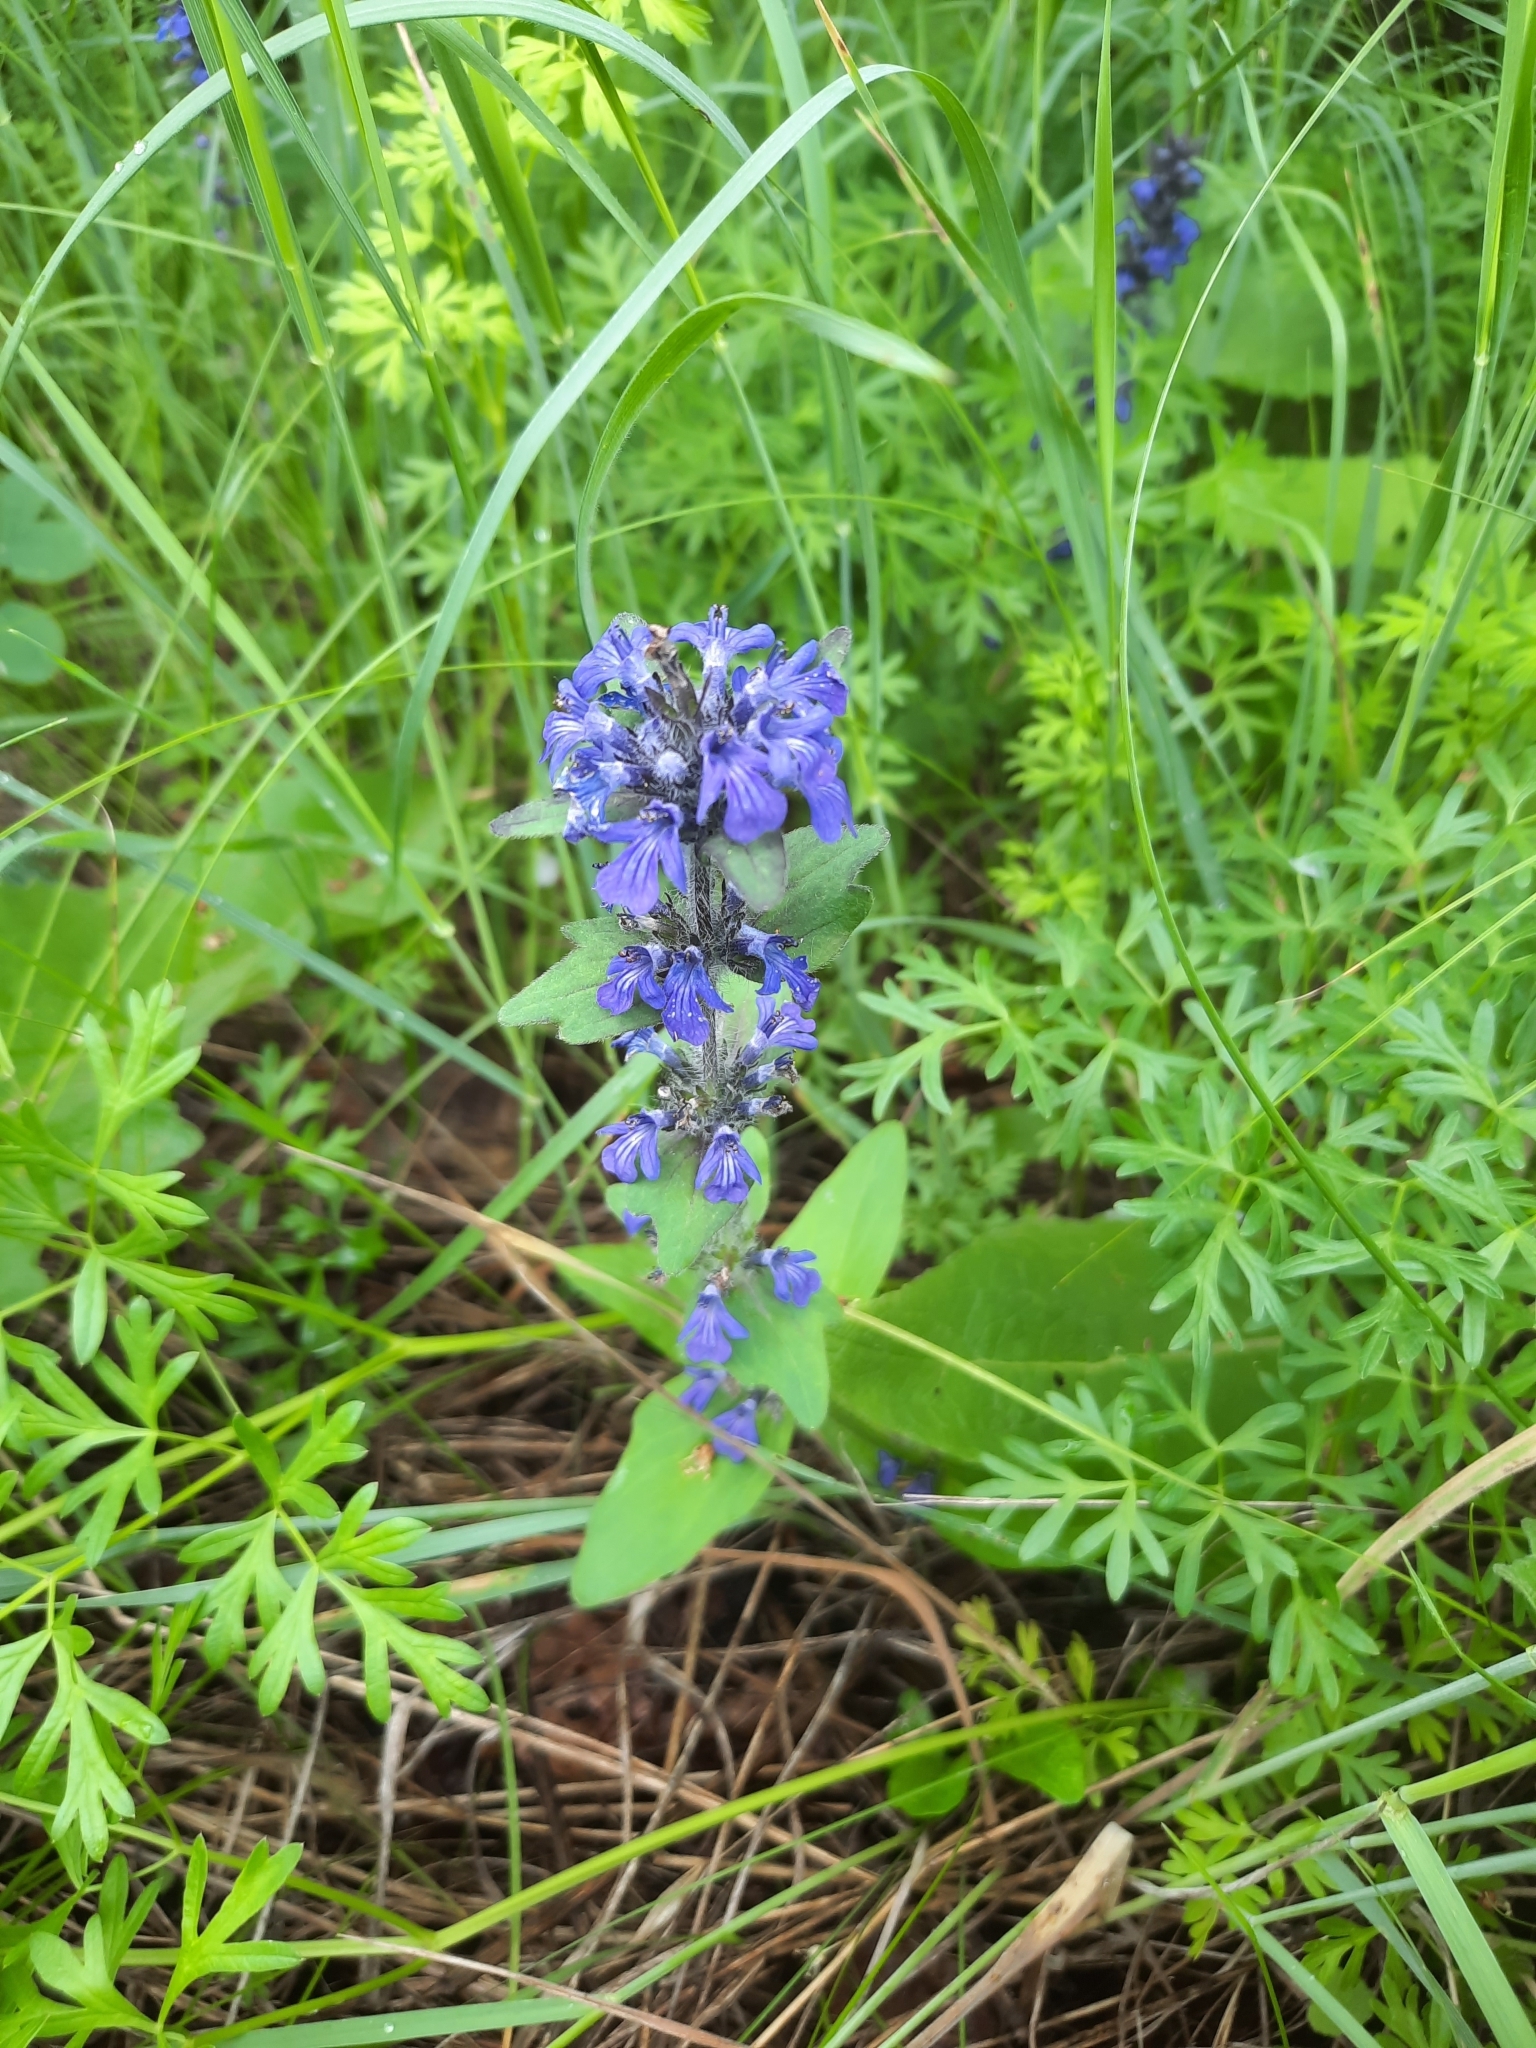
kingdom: Plantae
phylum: Tracheophyta
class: Magnoliopsida
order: Lamiales
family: Lamiaceae
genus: Ajuga
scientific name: Ajuga genevensis
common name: Blue bugle
